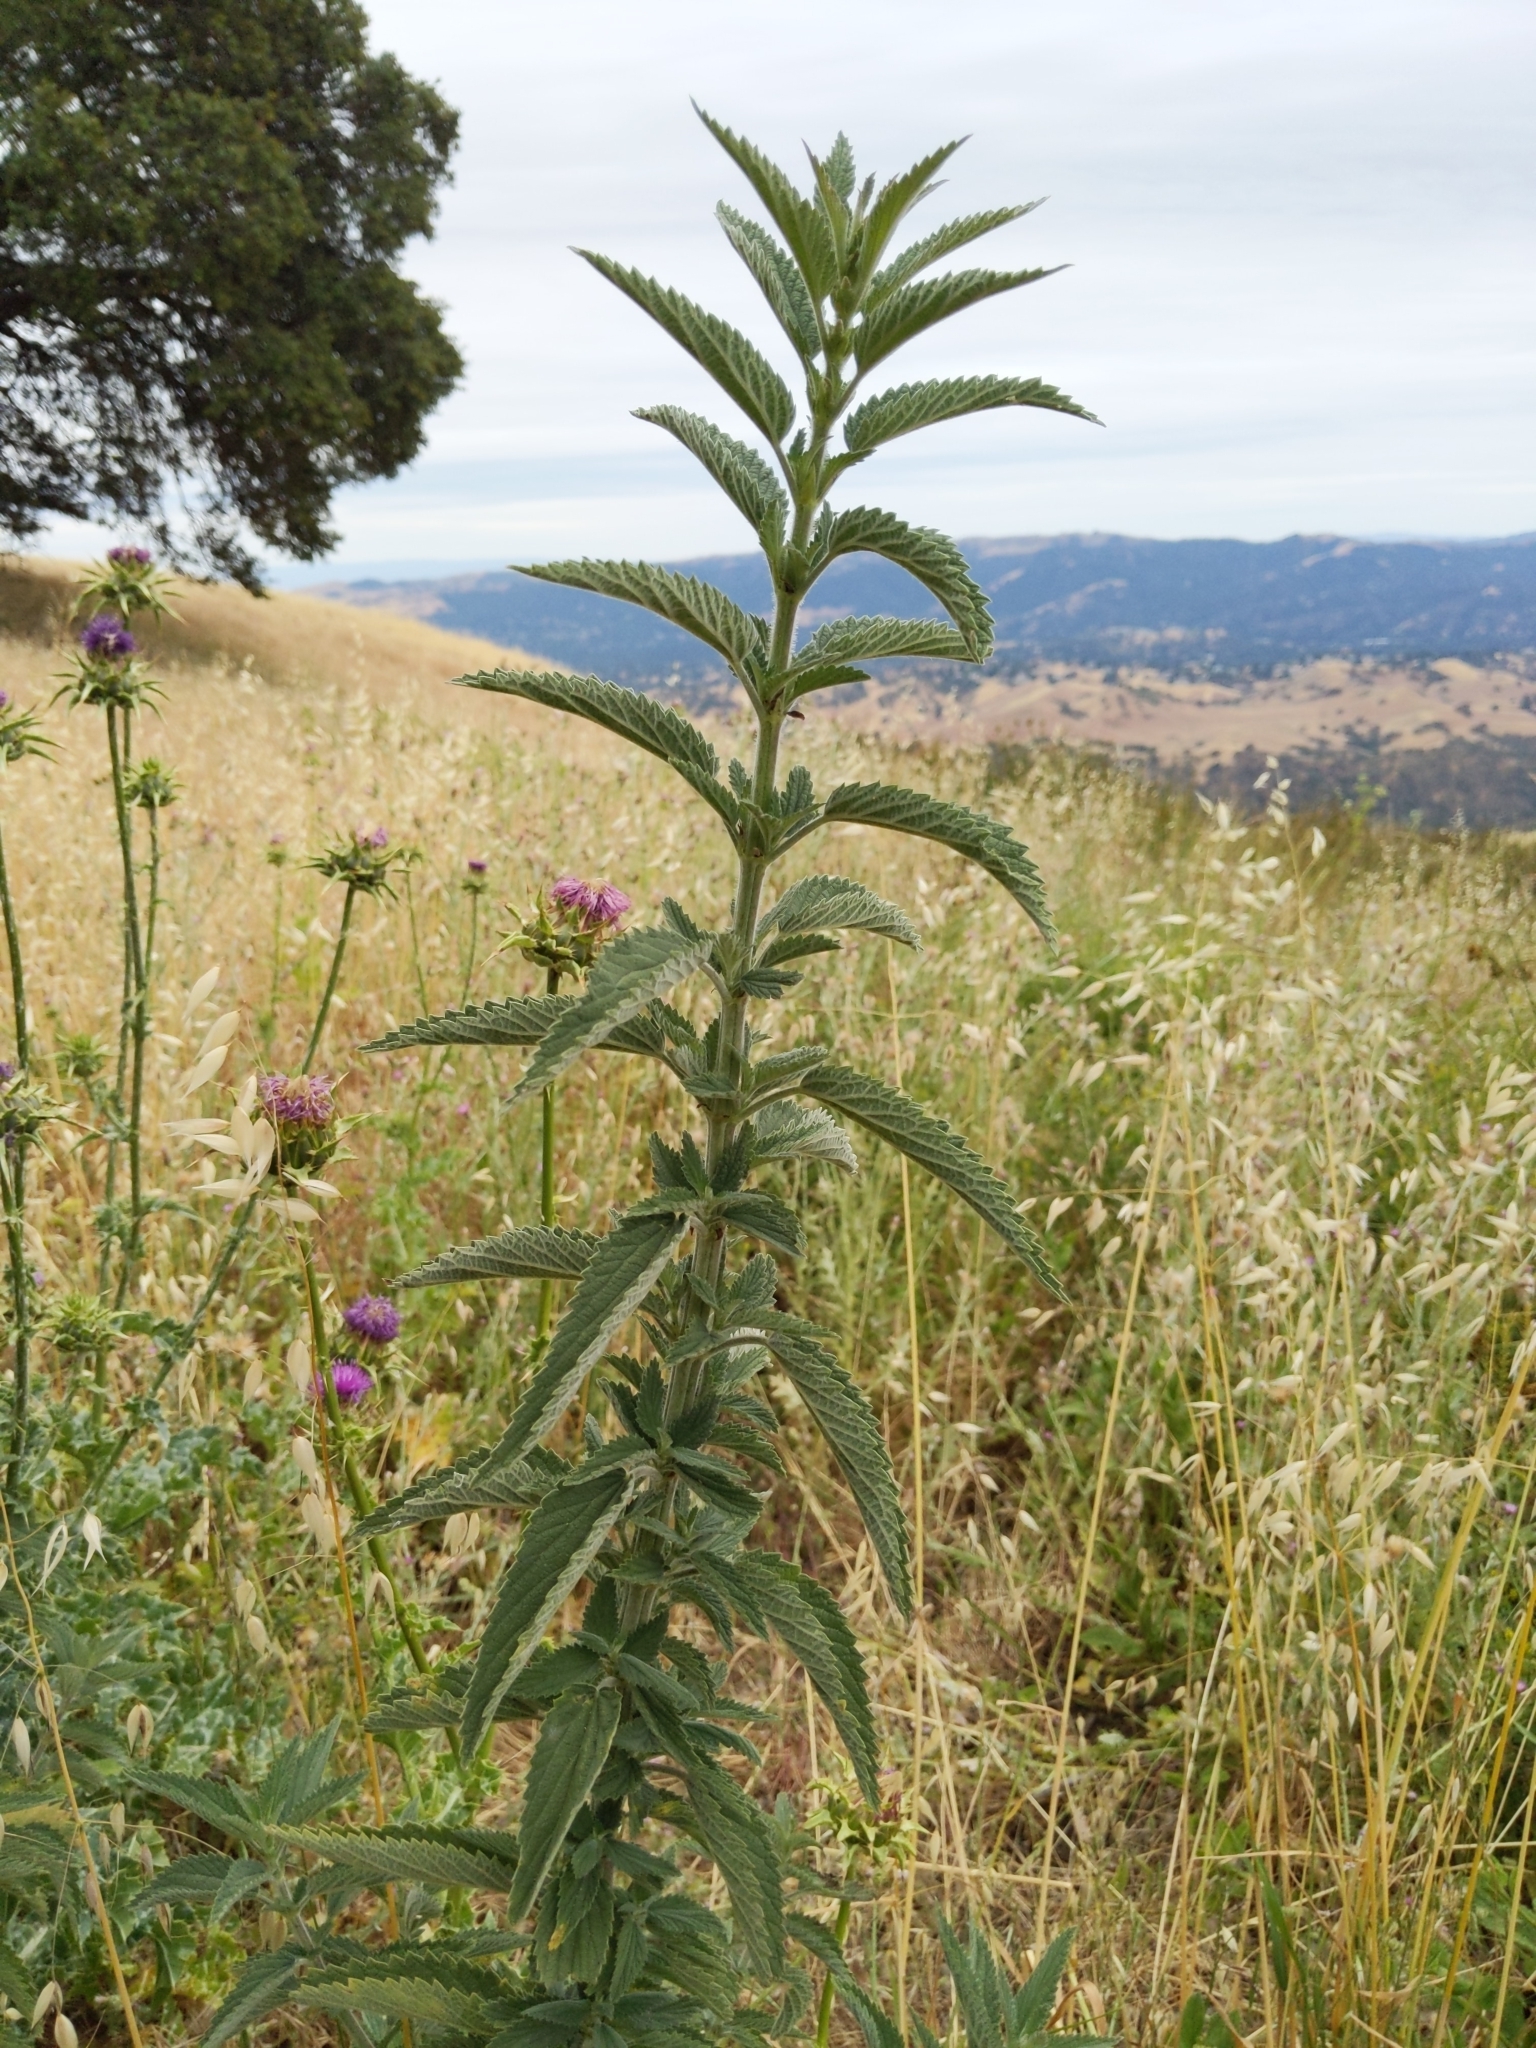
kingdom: Plantae
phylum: Tracheophyta
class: Magnoliopsida
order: Rosales
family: Urticaceae
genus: Urtica
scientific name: Urtica gracilis
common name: Slender stinging nettle
